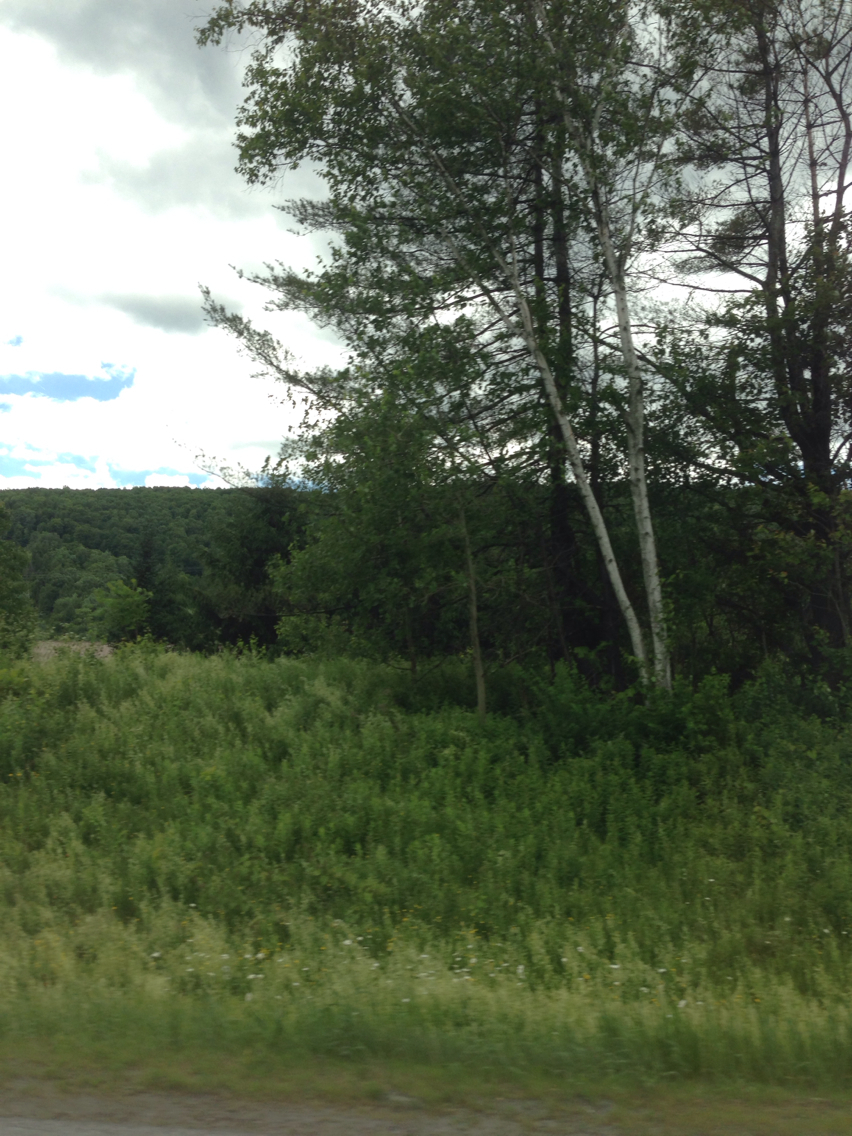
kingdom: Plantae
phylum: Tracheophyta
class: Magnoliopsida
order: Fagales
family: Betulaceae
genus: Betula
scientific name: Betula papyrifera
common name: Paper birch
